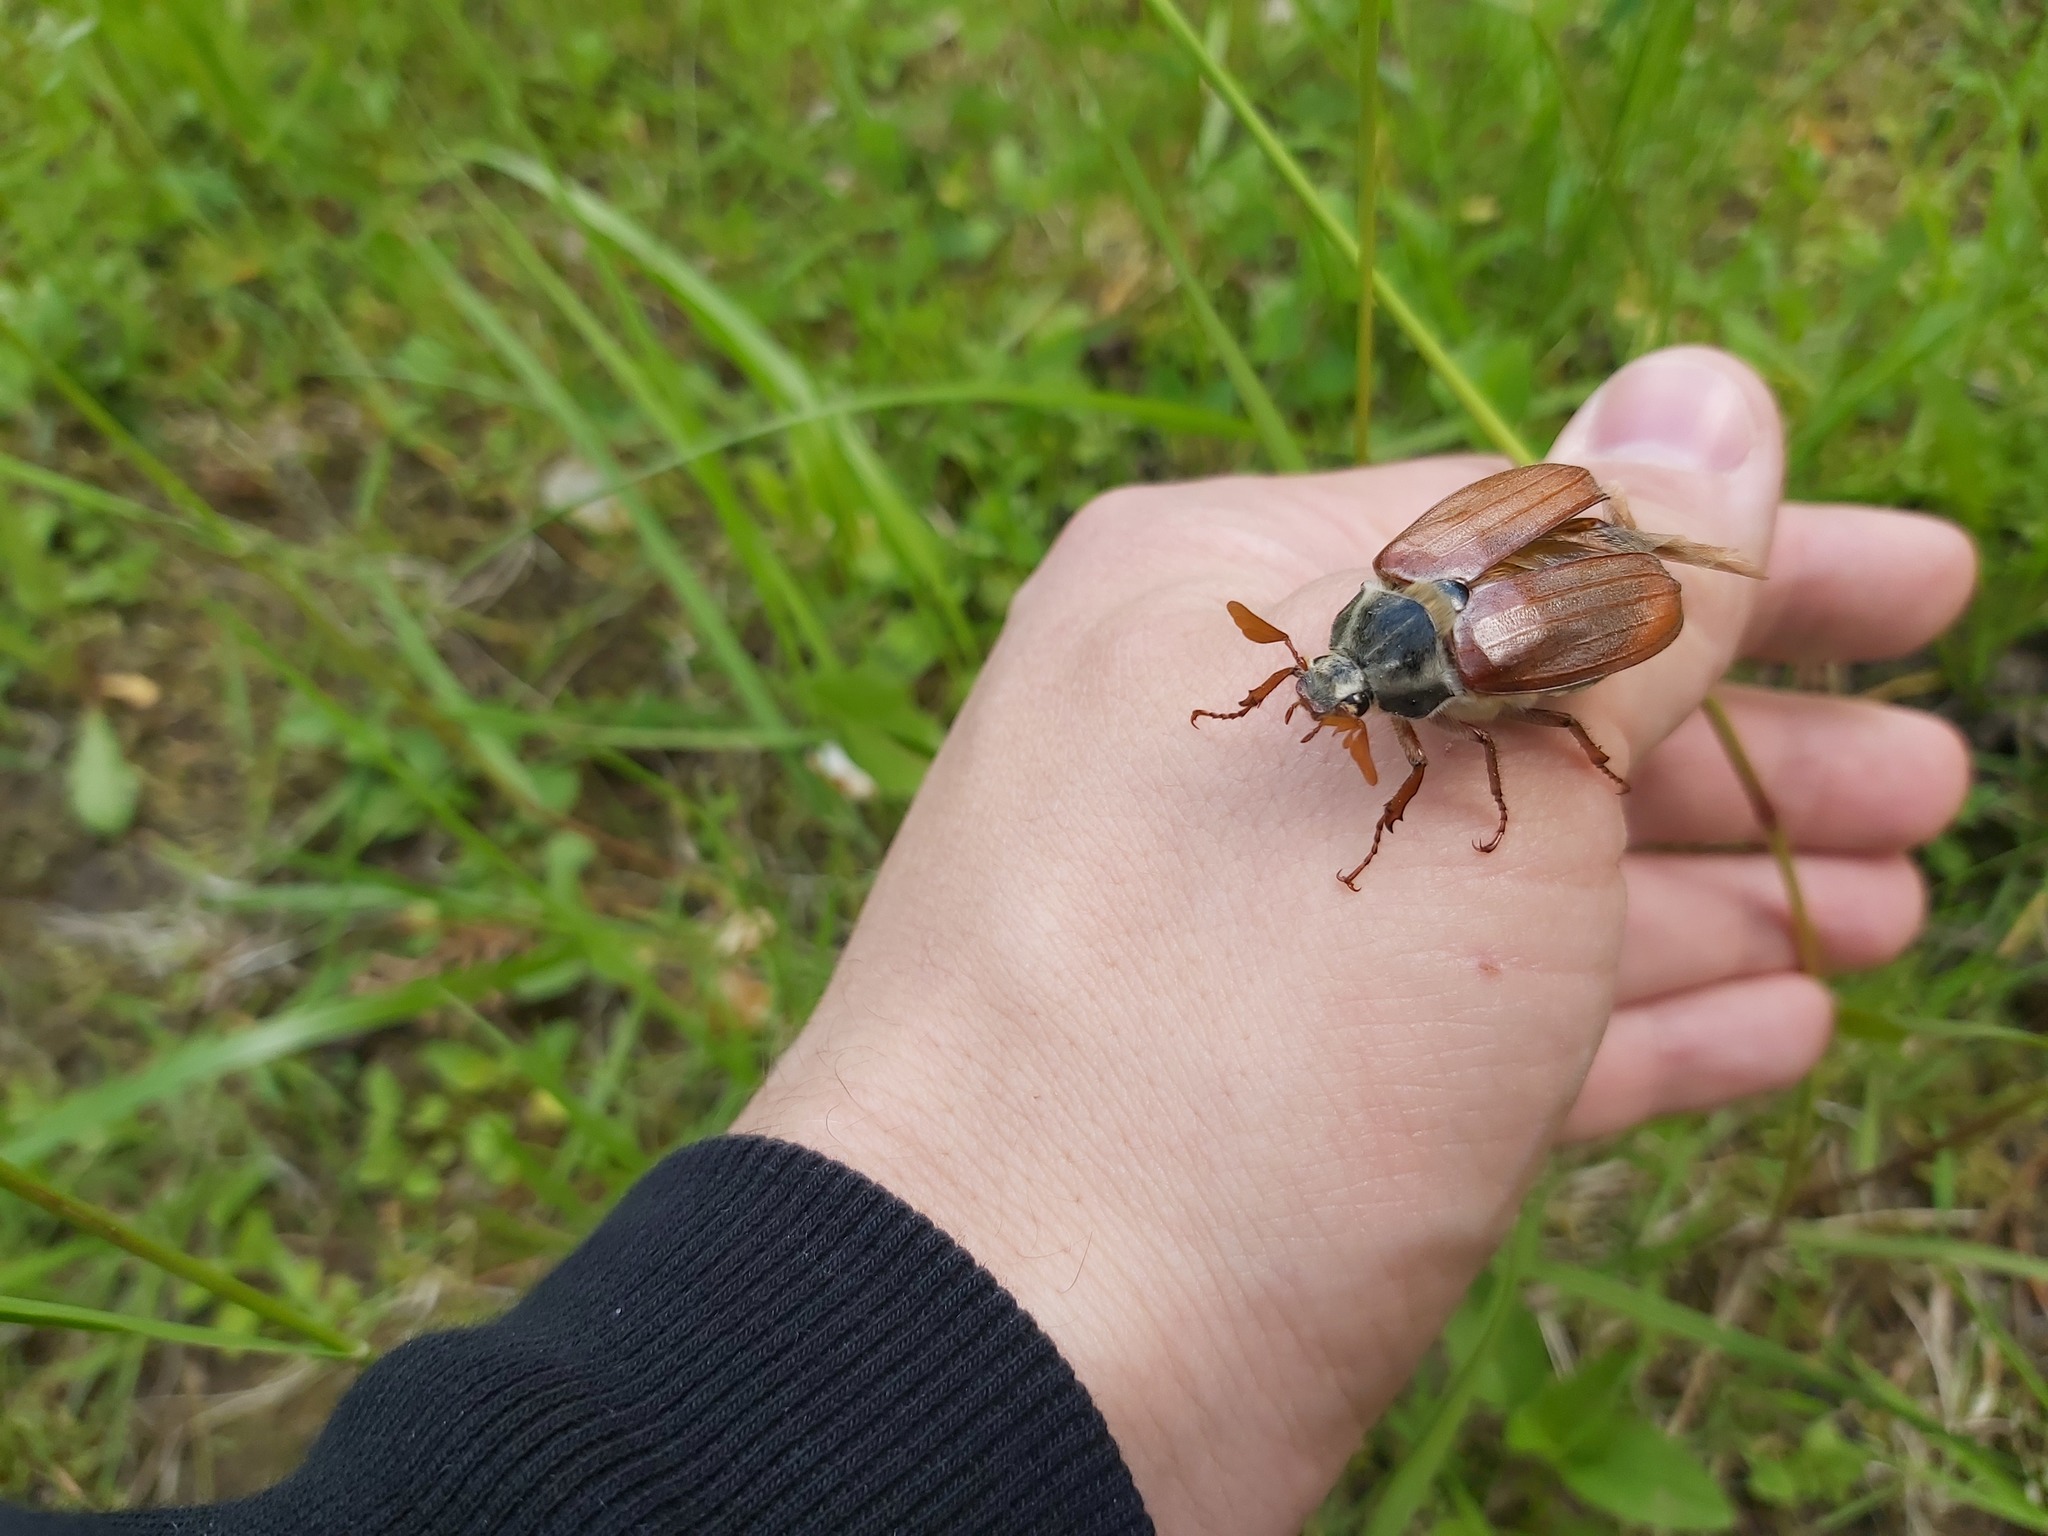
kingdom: Animalia
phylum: Arthropoda
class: Insecta
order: Coleoptera
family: Scarabaeidae
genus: Melolontha
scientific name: Melolontha melolontha
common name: Cockchafer maybeetle
